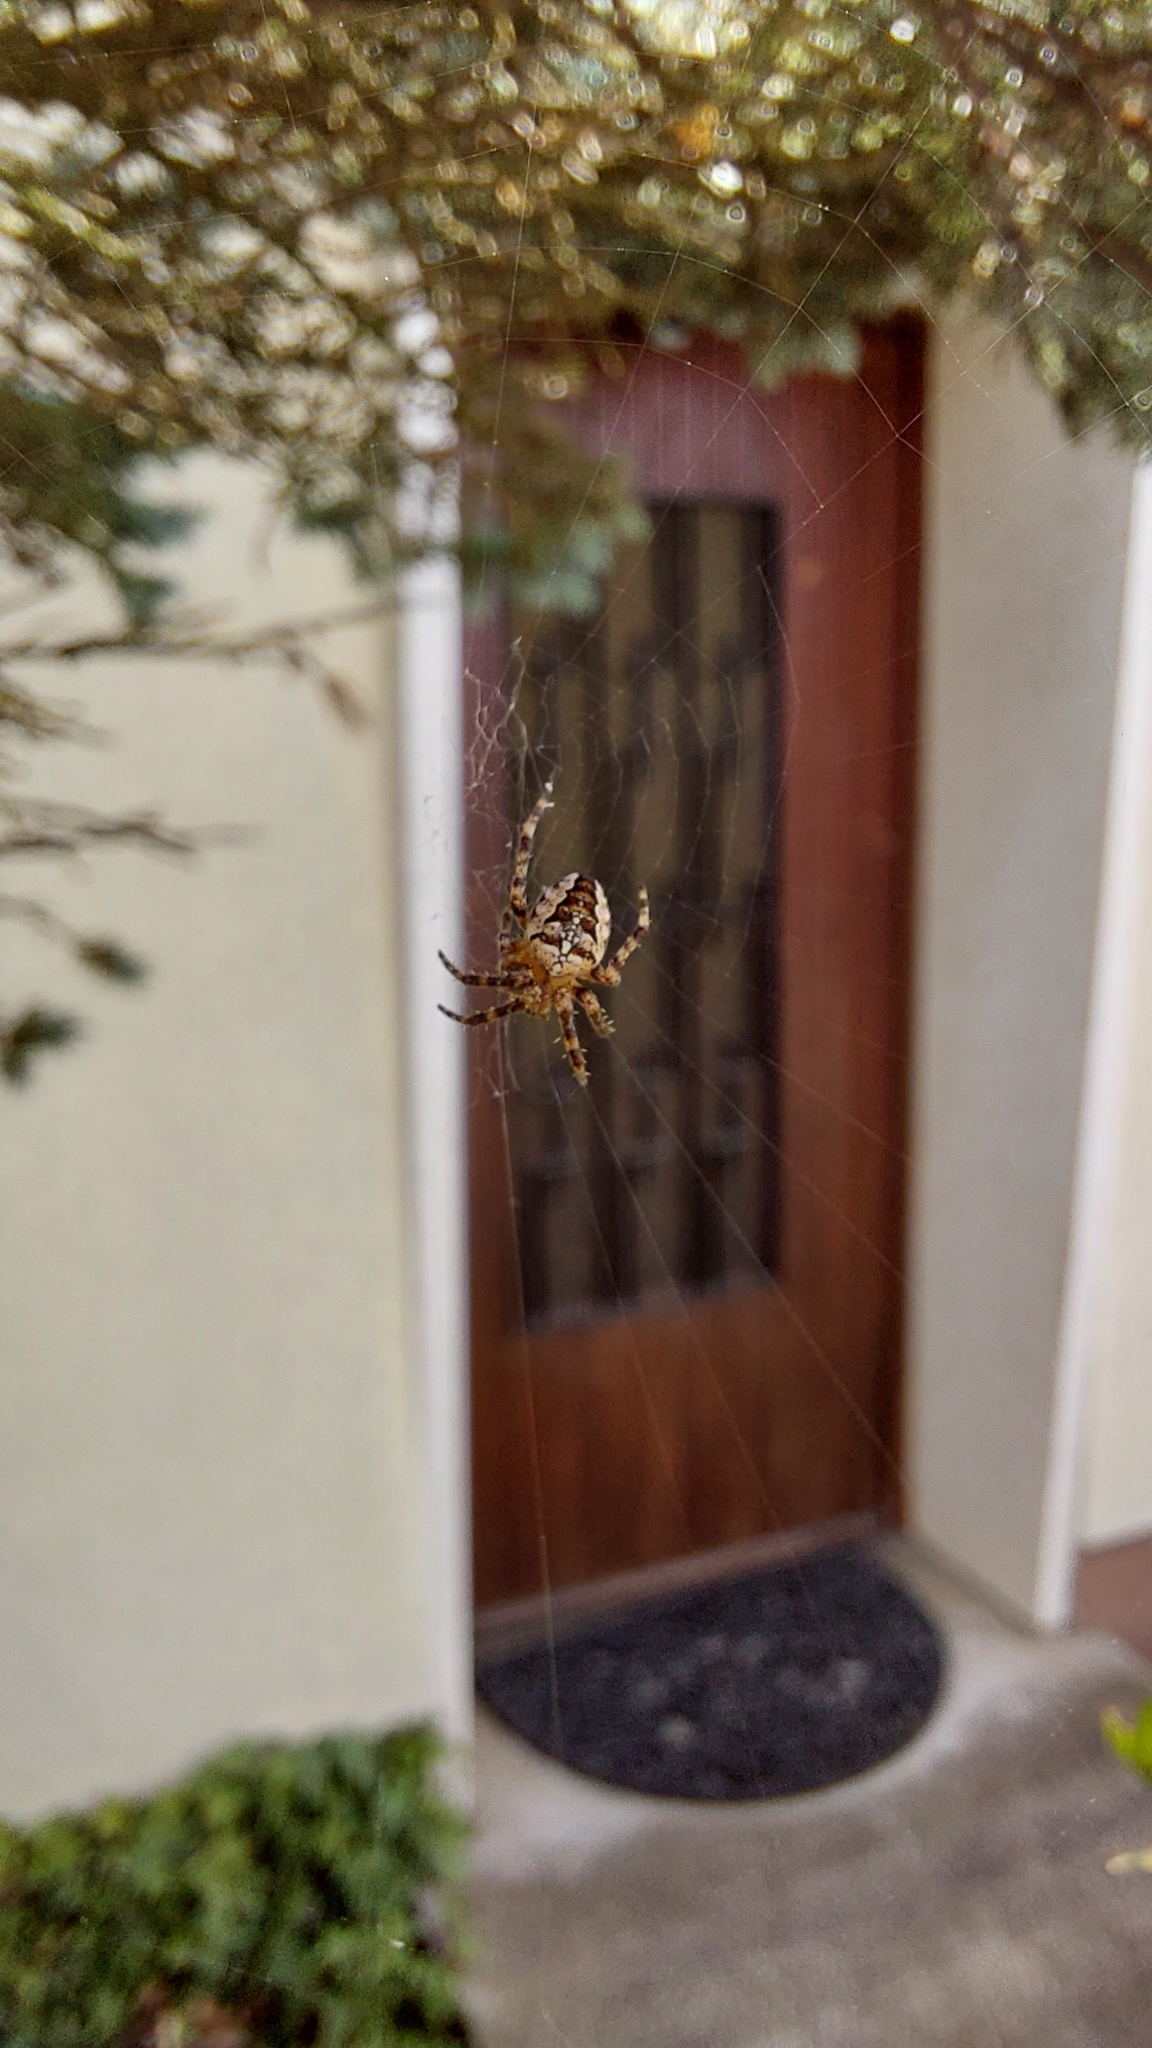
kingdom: Animalia
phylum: Arthropoda
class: Arachnida
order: Araneae
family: Araneidae
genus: Araneus
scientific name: Araneus diadematus
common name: Cross orbweaver
